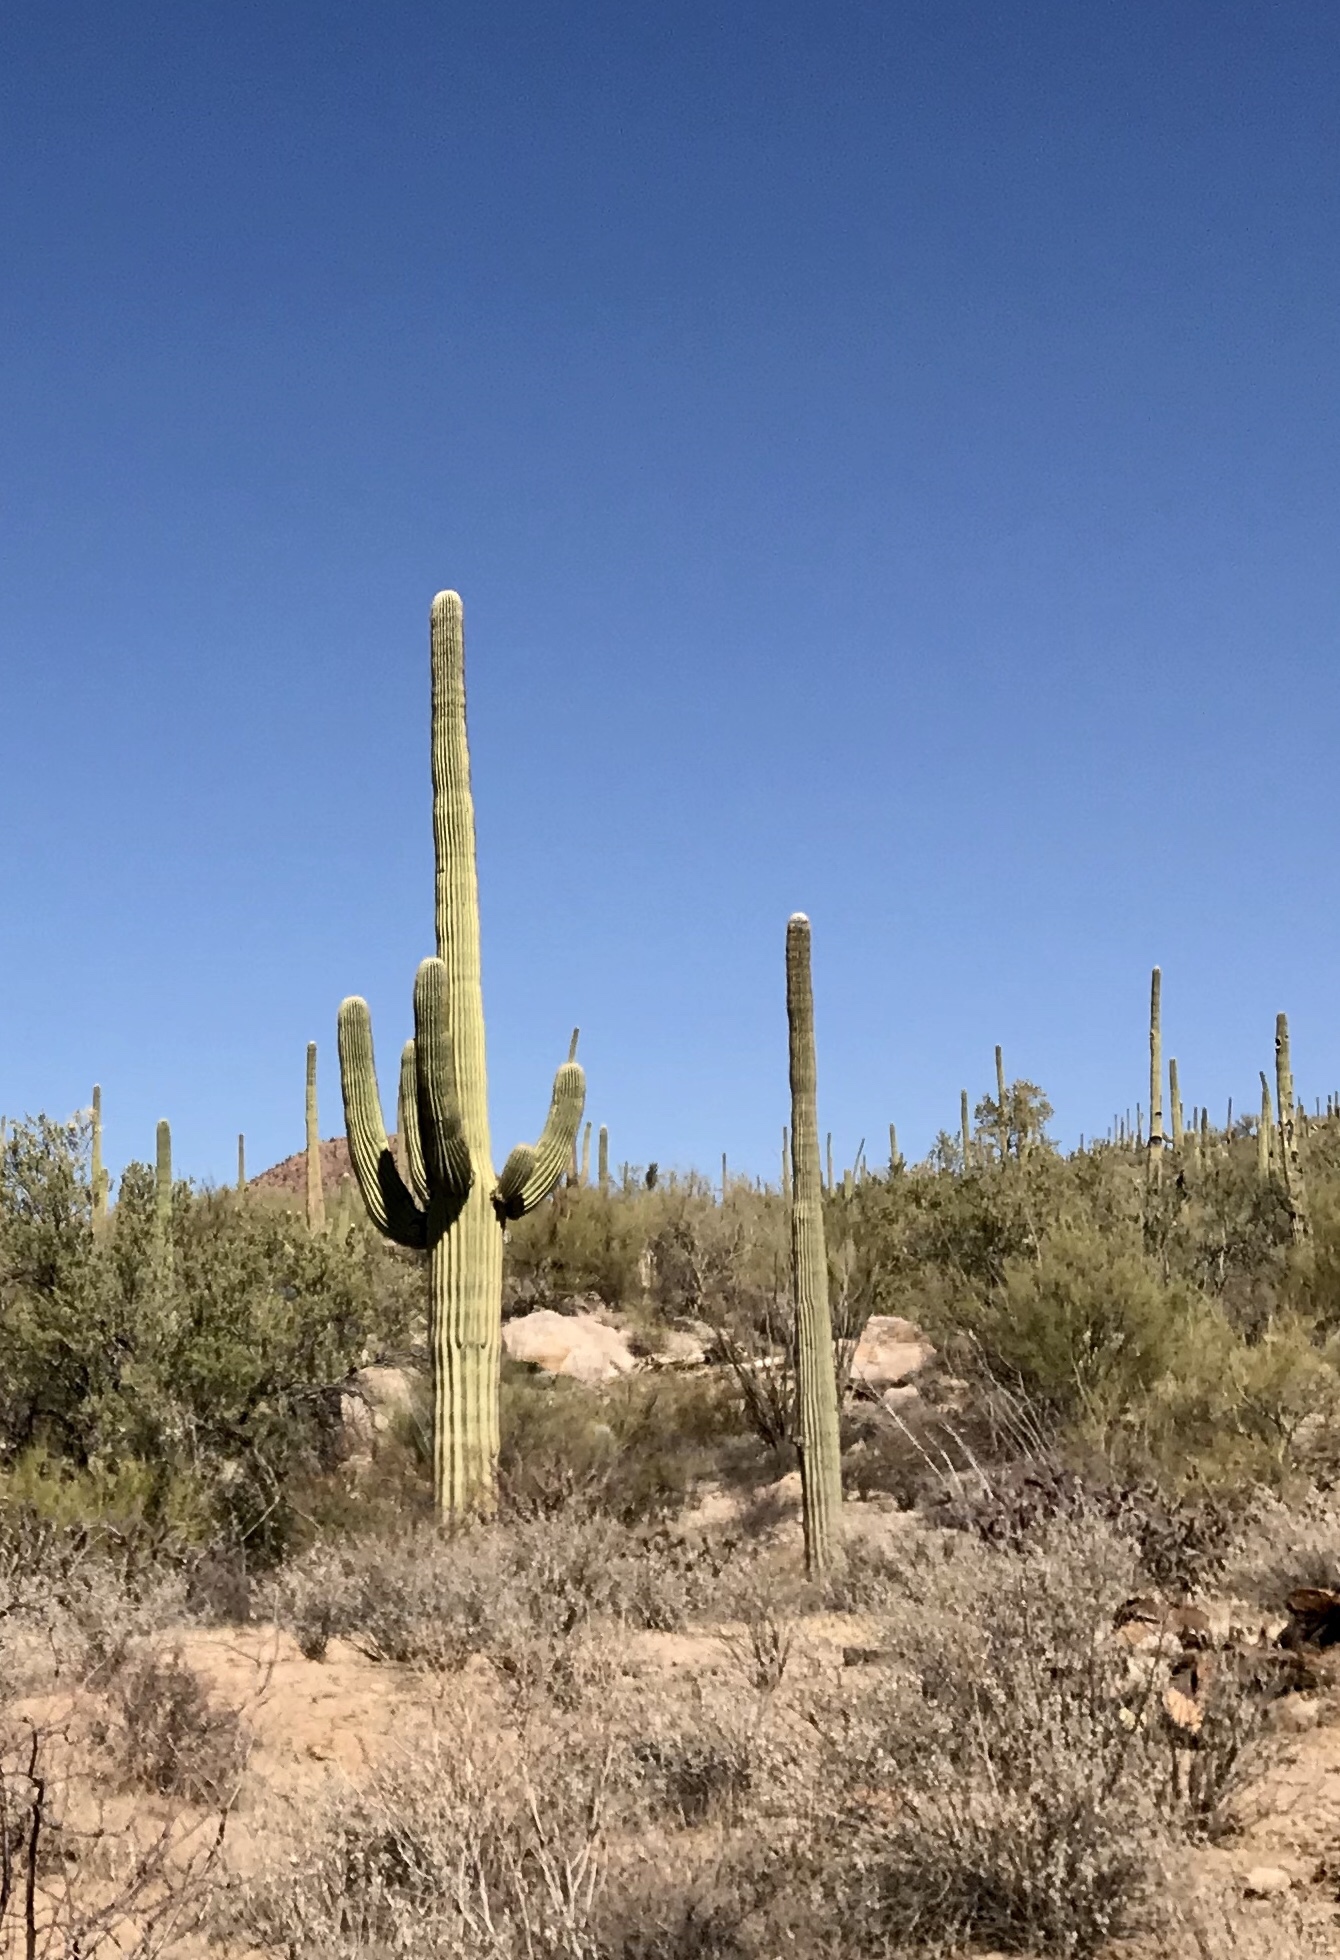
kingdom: Plantae
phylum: Tracheophyta
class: Magnoliopsida
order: Caryophyllales
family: Cactaceae
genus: Carnegiea
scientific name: Carnegiea gigantea
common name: Saguaro
